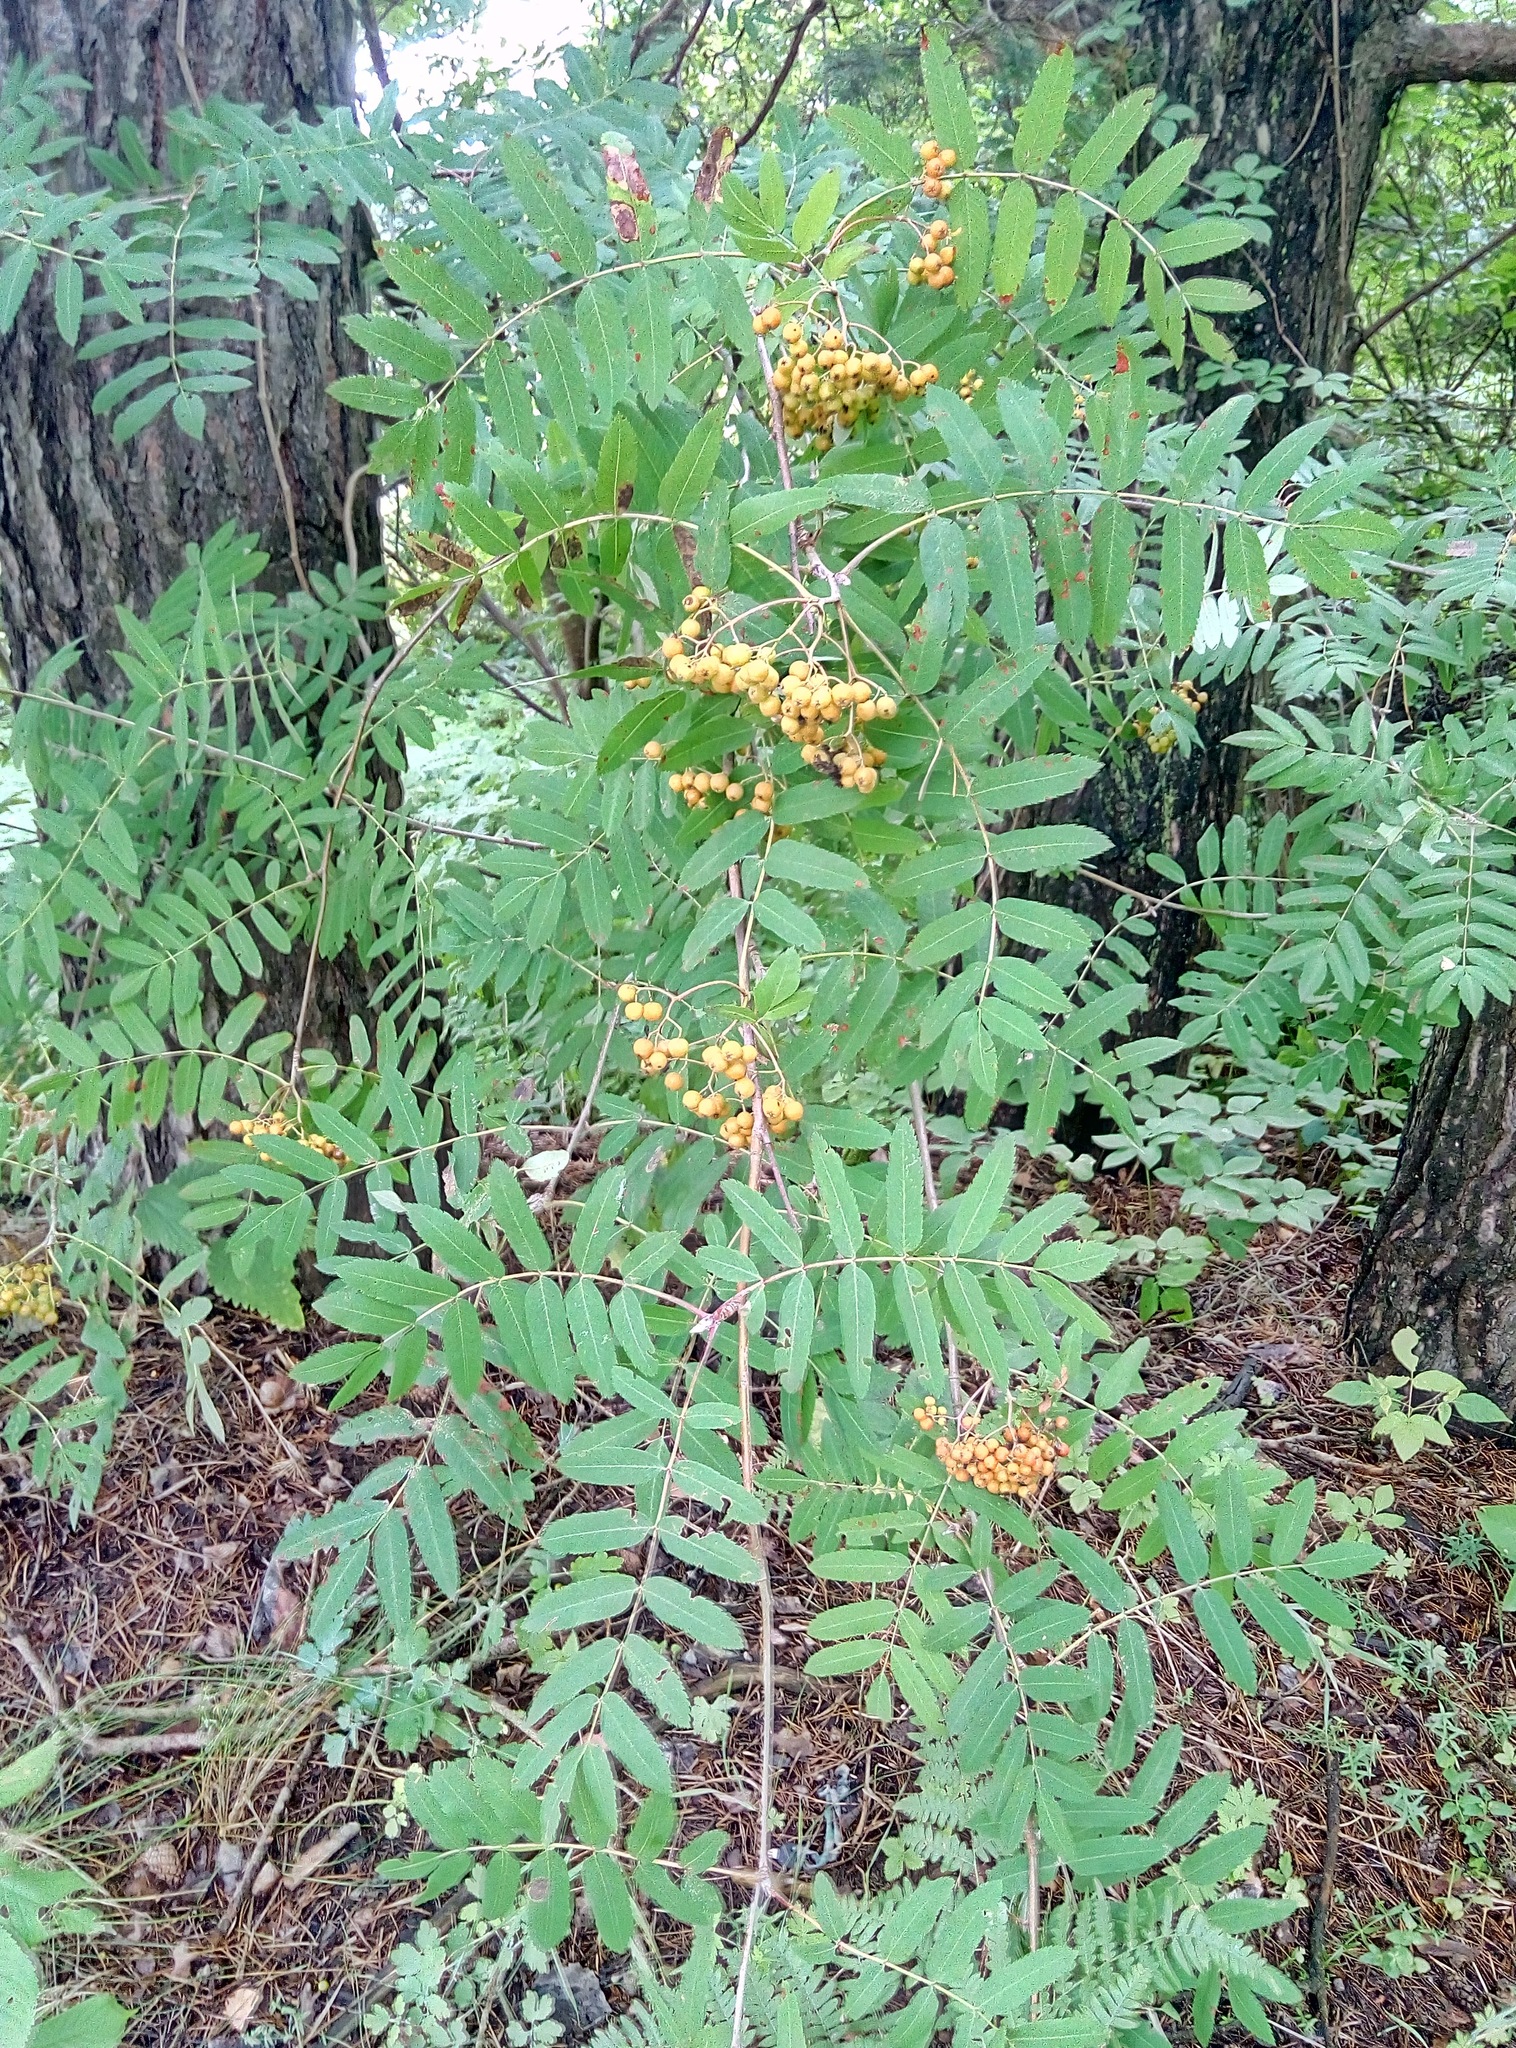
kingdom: Plantae
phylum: Tracheophyta
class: Magnoliopsida
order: Rosales
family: Rosaceae
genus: Sorbus
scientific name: Sorbus aucuparia
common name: Rowan
